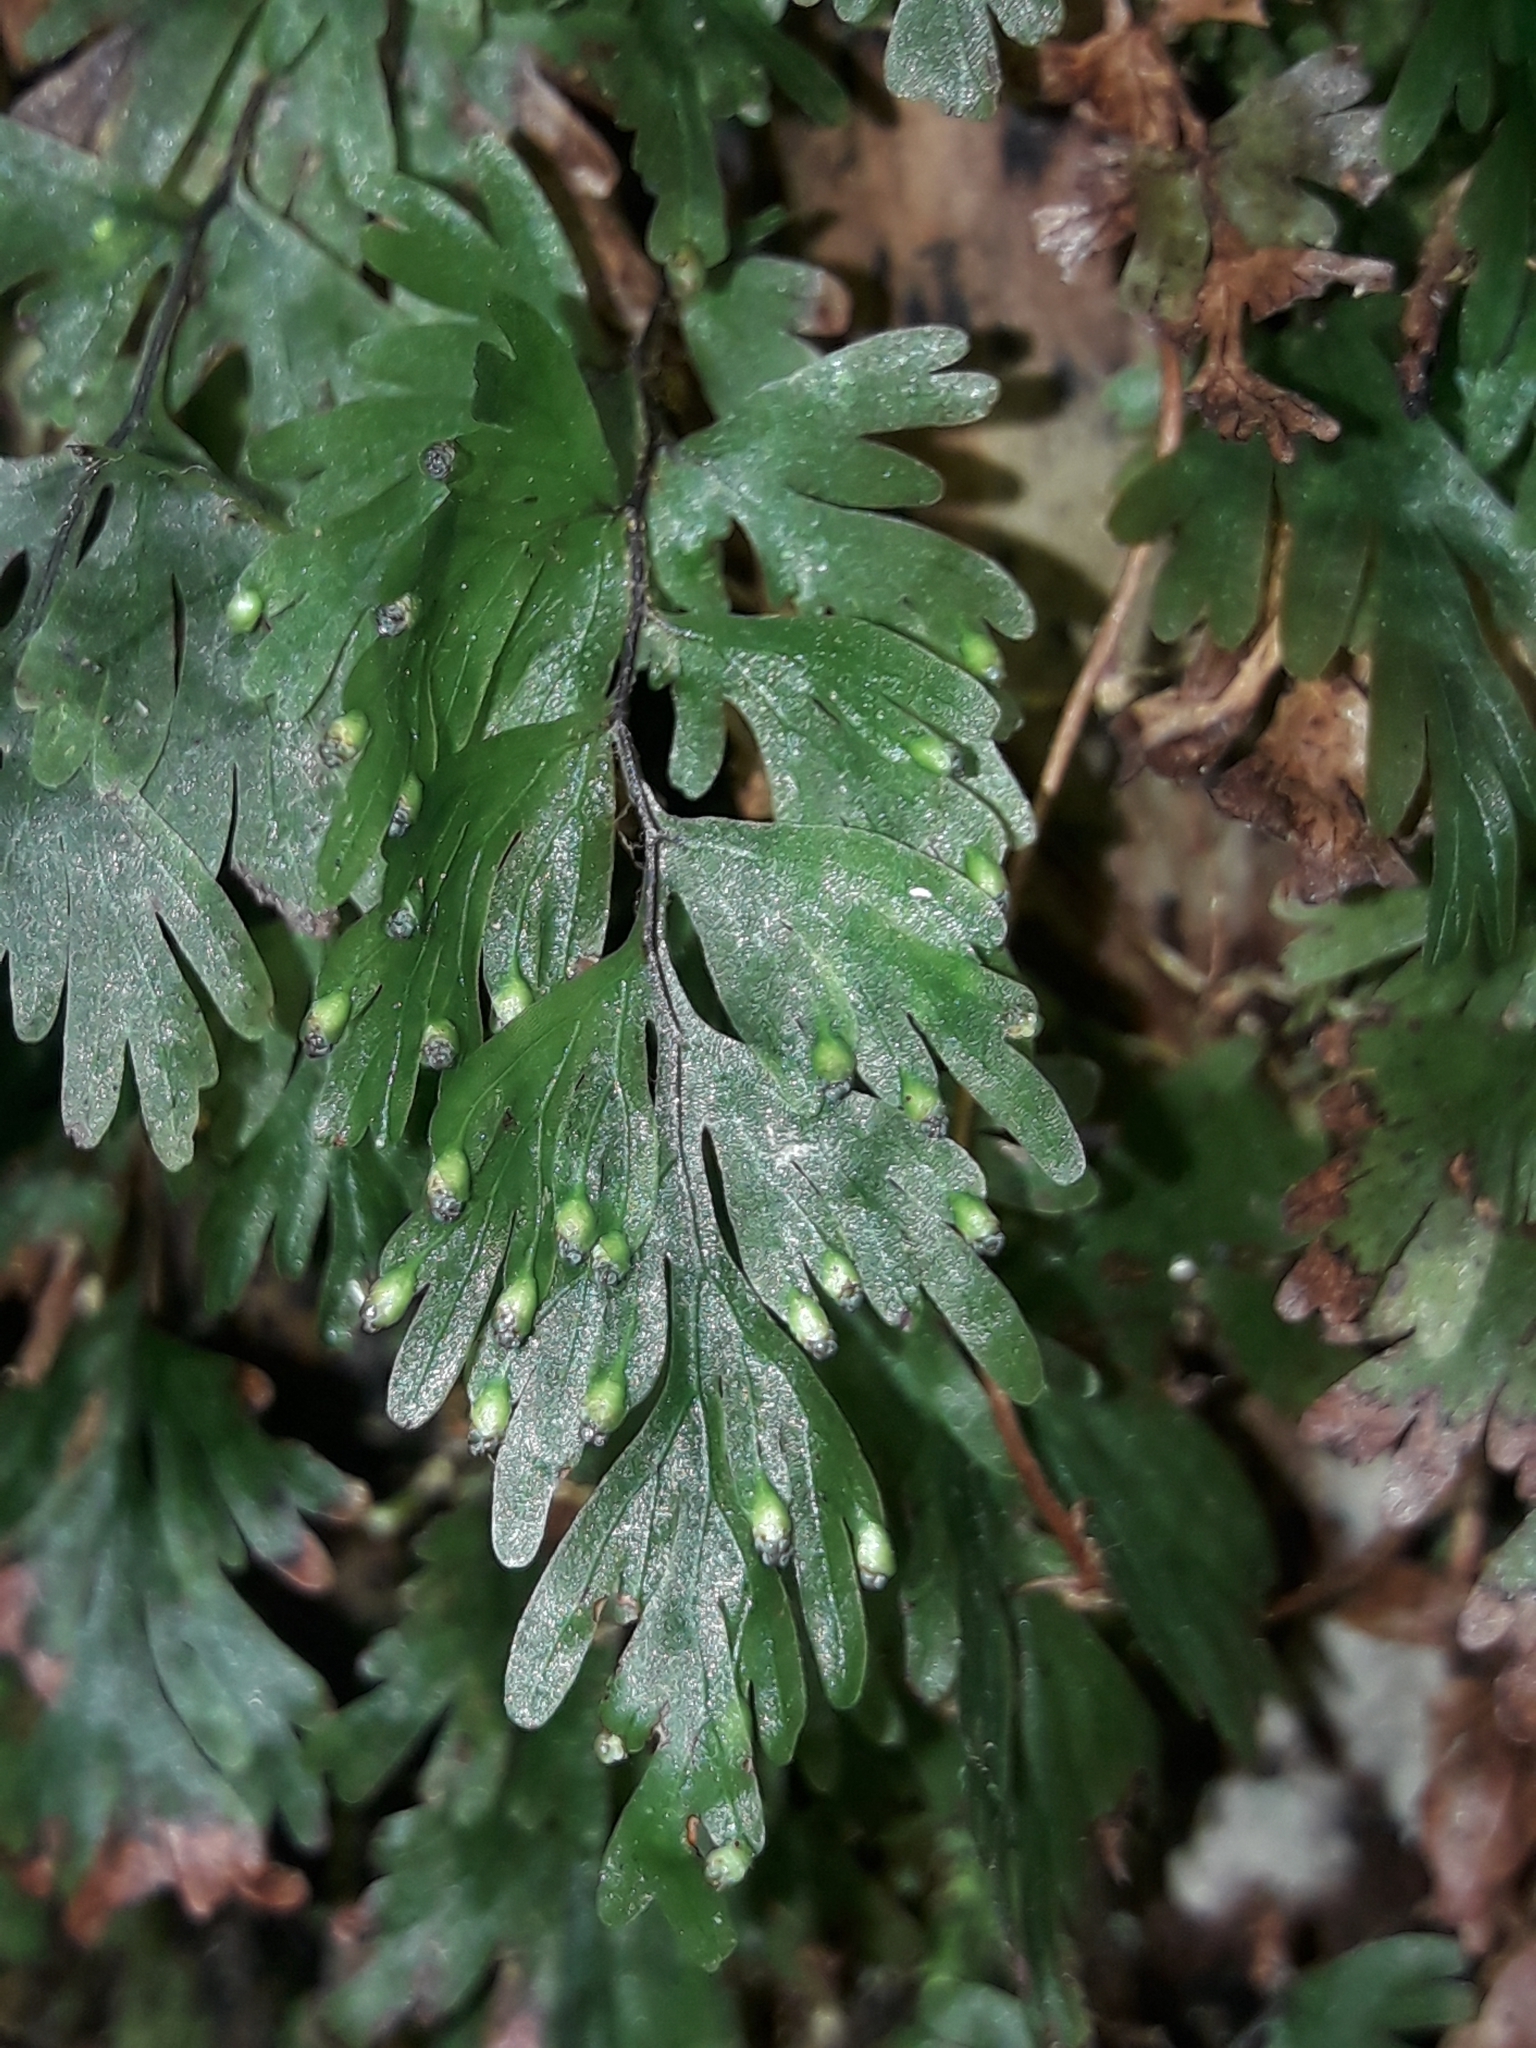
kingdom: Plantae
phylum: Tracheophyta
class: Polypodiopsida
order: Hymenophyllales
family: Hymenophyllaceae
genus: Hymenophyllum
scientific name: Hymenophyllum flabellatum
